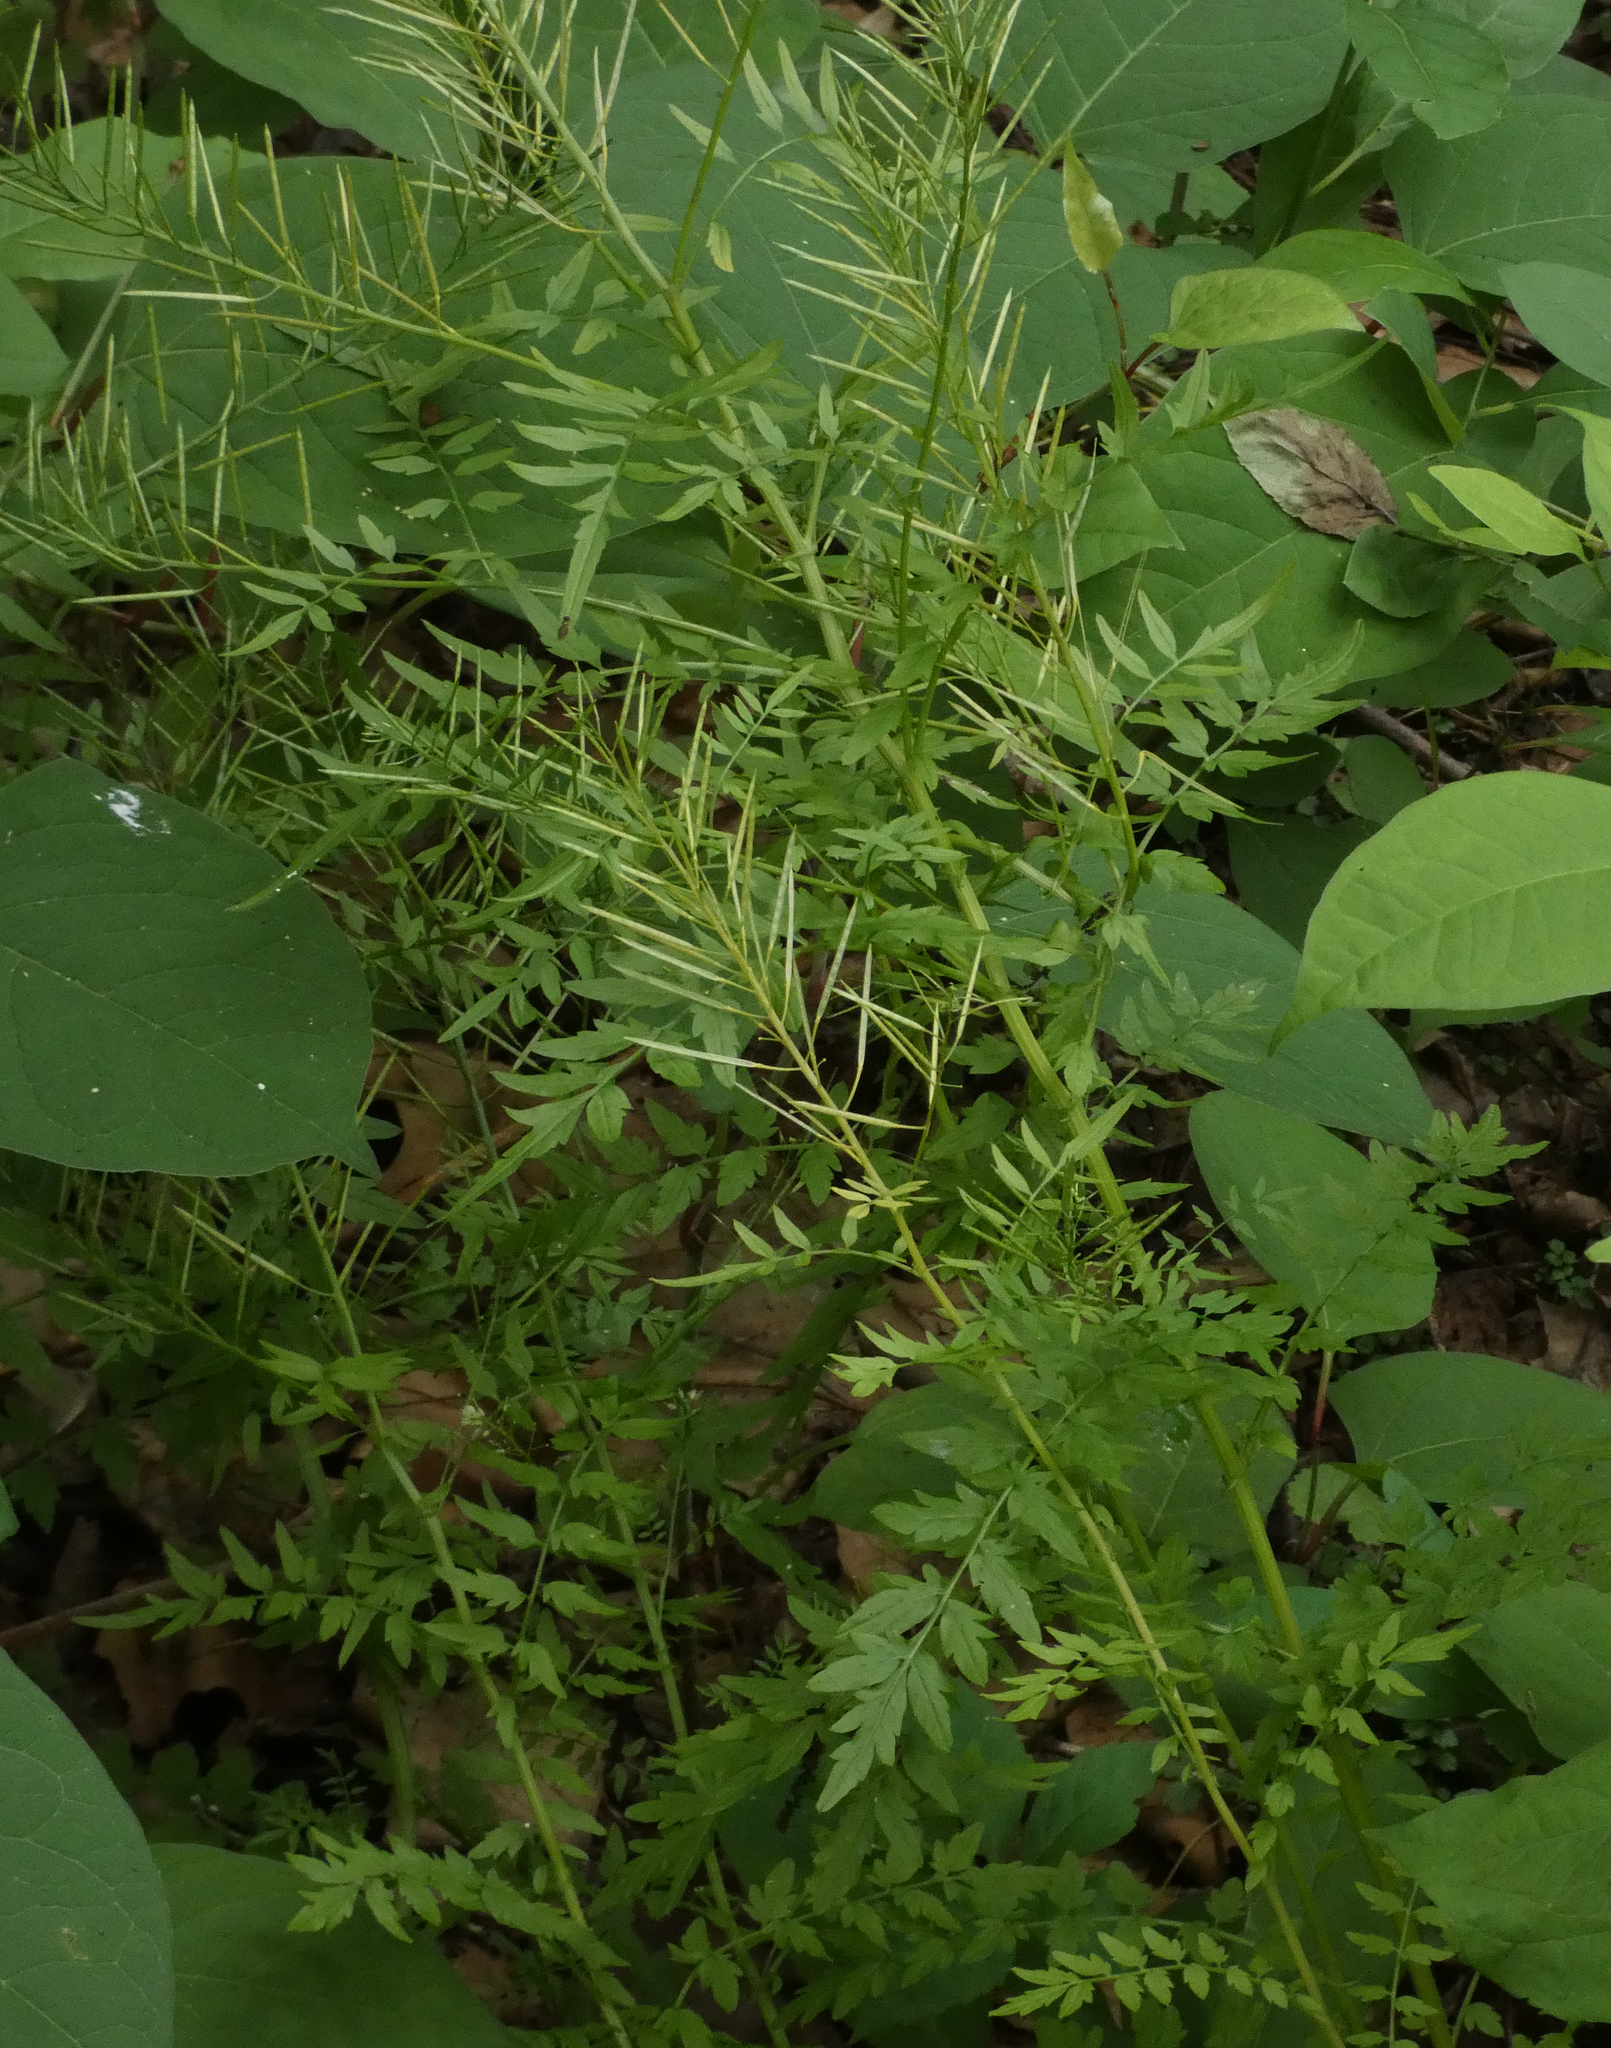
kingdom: Plantae
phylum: Tracheophyta
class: Magnoliopsida
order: Brassicales
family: Brassicaceae
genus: Cardamine
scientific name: Cardamine impatiens
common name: Narrow-leaved bitter-cress
